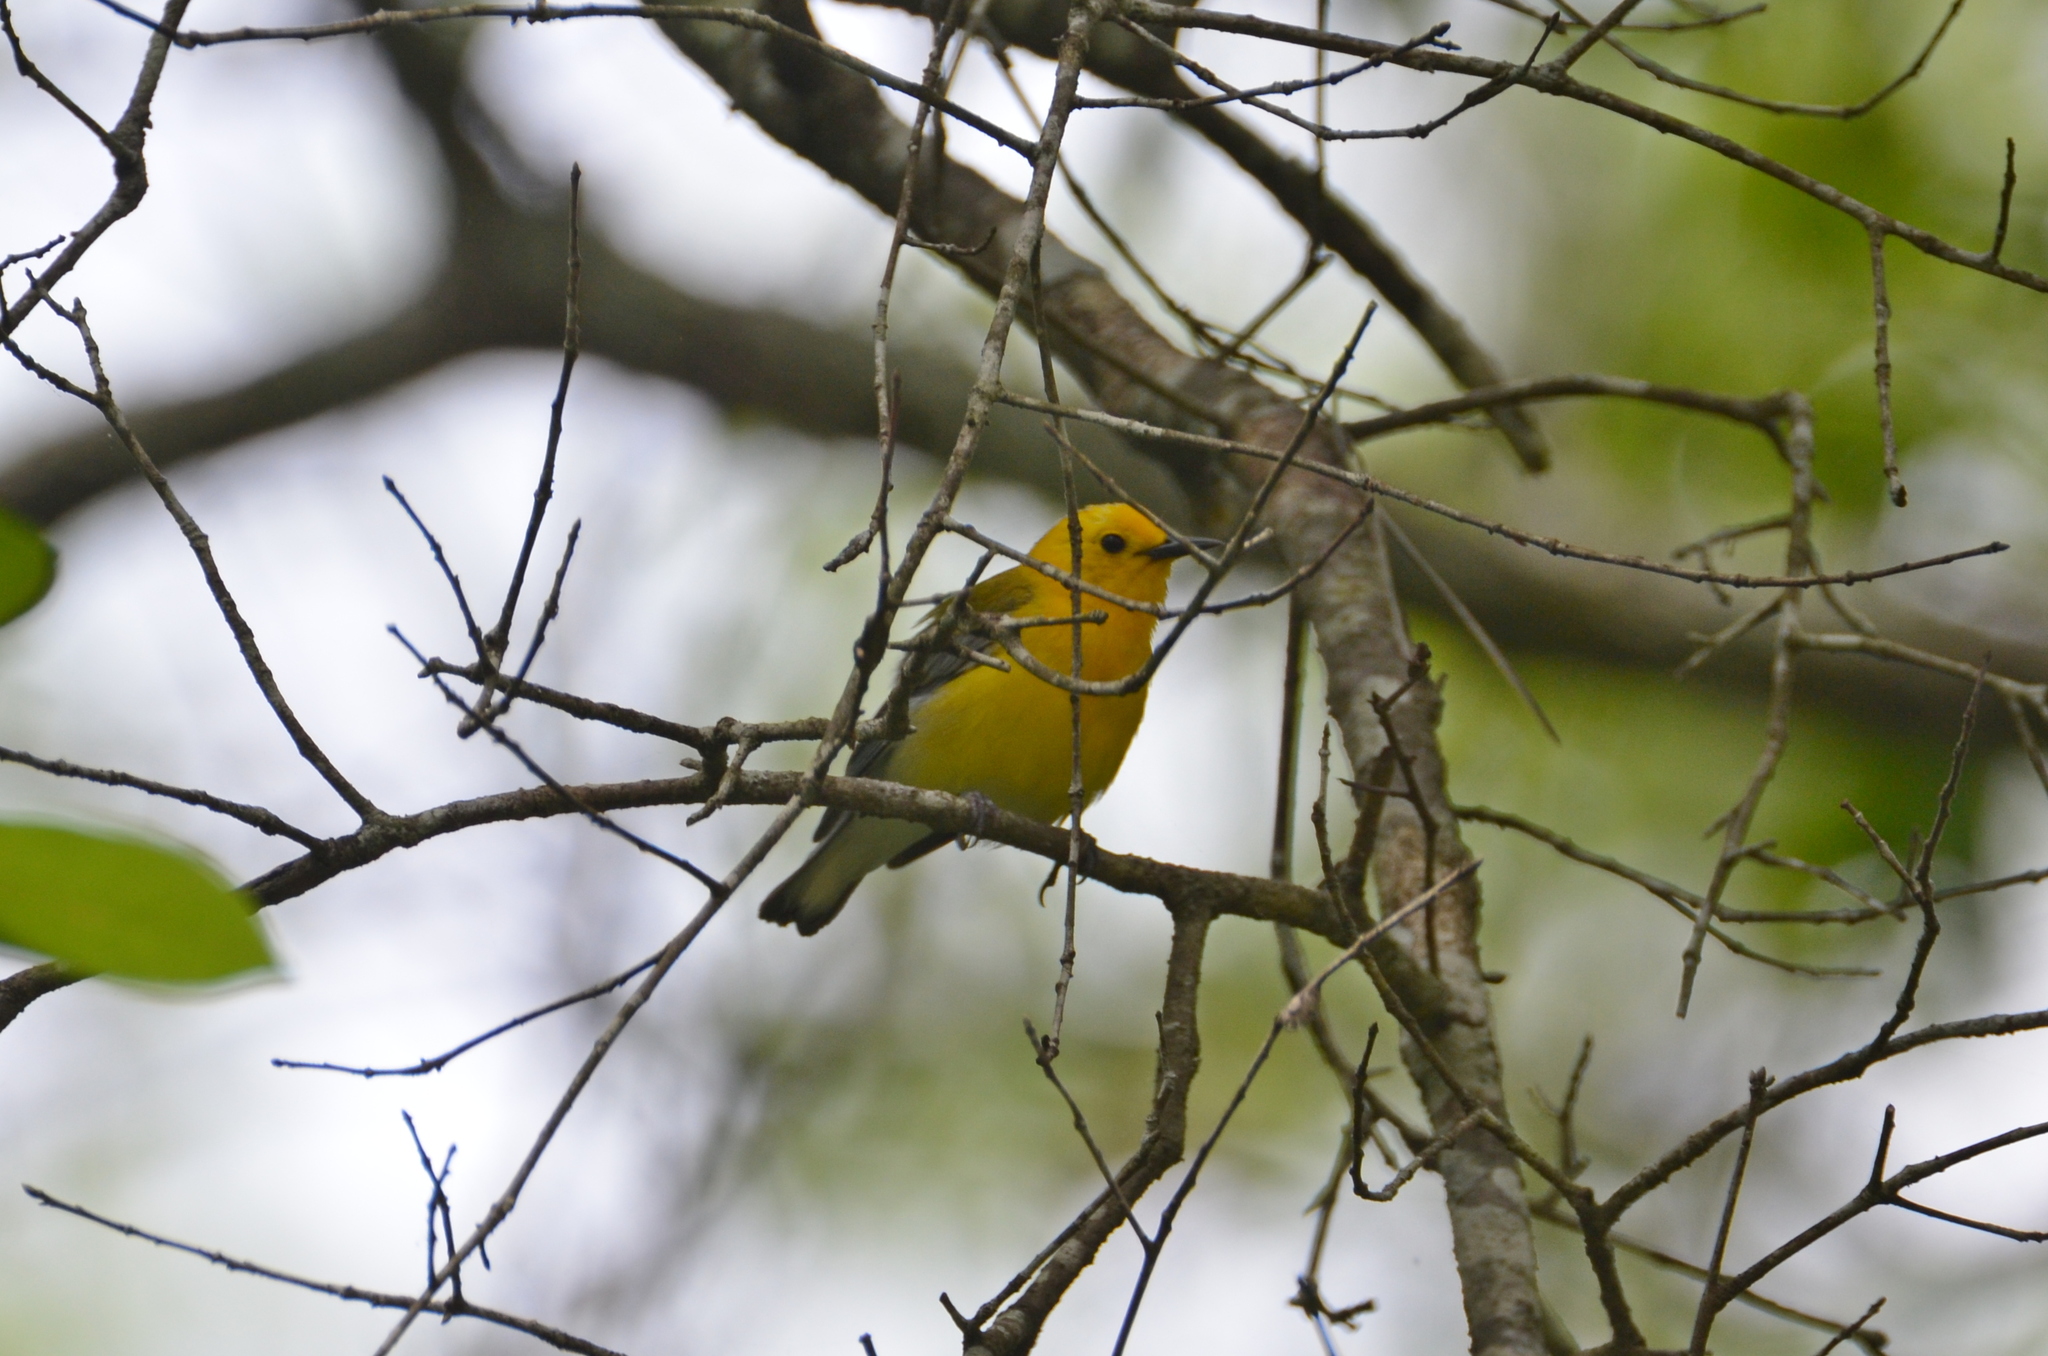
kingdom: Animalia
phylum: Chordata
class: Aves
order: Passeriformes
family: Parulidae
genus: Protonotaria
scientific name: Protonotaria citrea
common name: Prothonotary warbler
